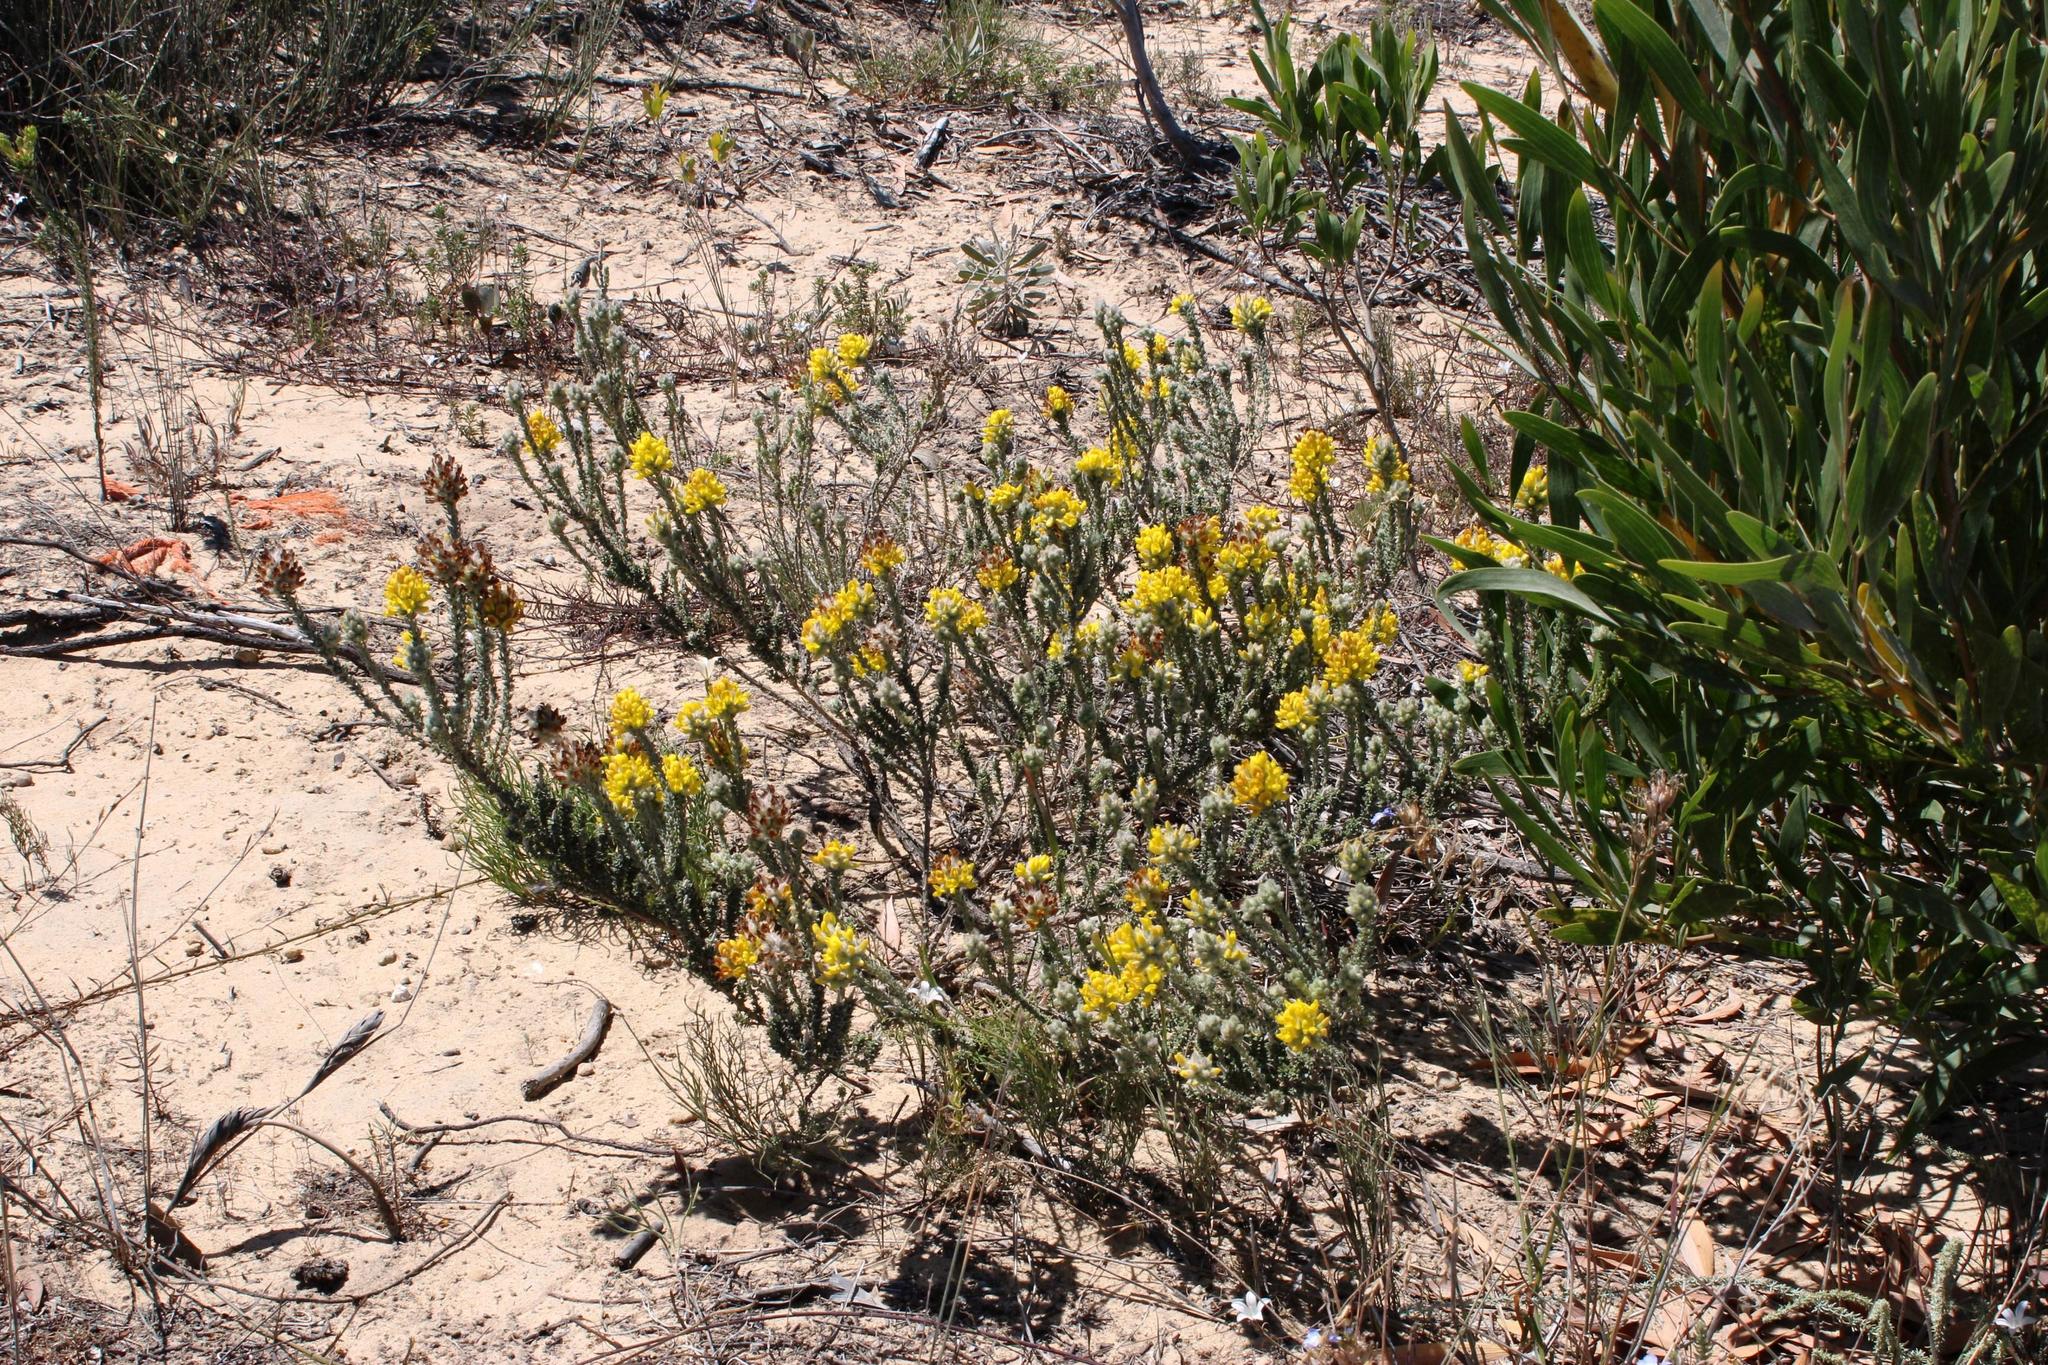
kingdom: Plantae
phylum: Tracheophyta
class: Magnoliopsida
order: Fabales
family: Fabaceae
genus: Aspalathus
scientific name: Aspalathus quinquefolia
